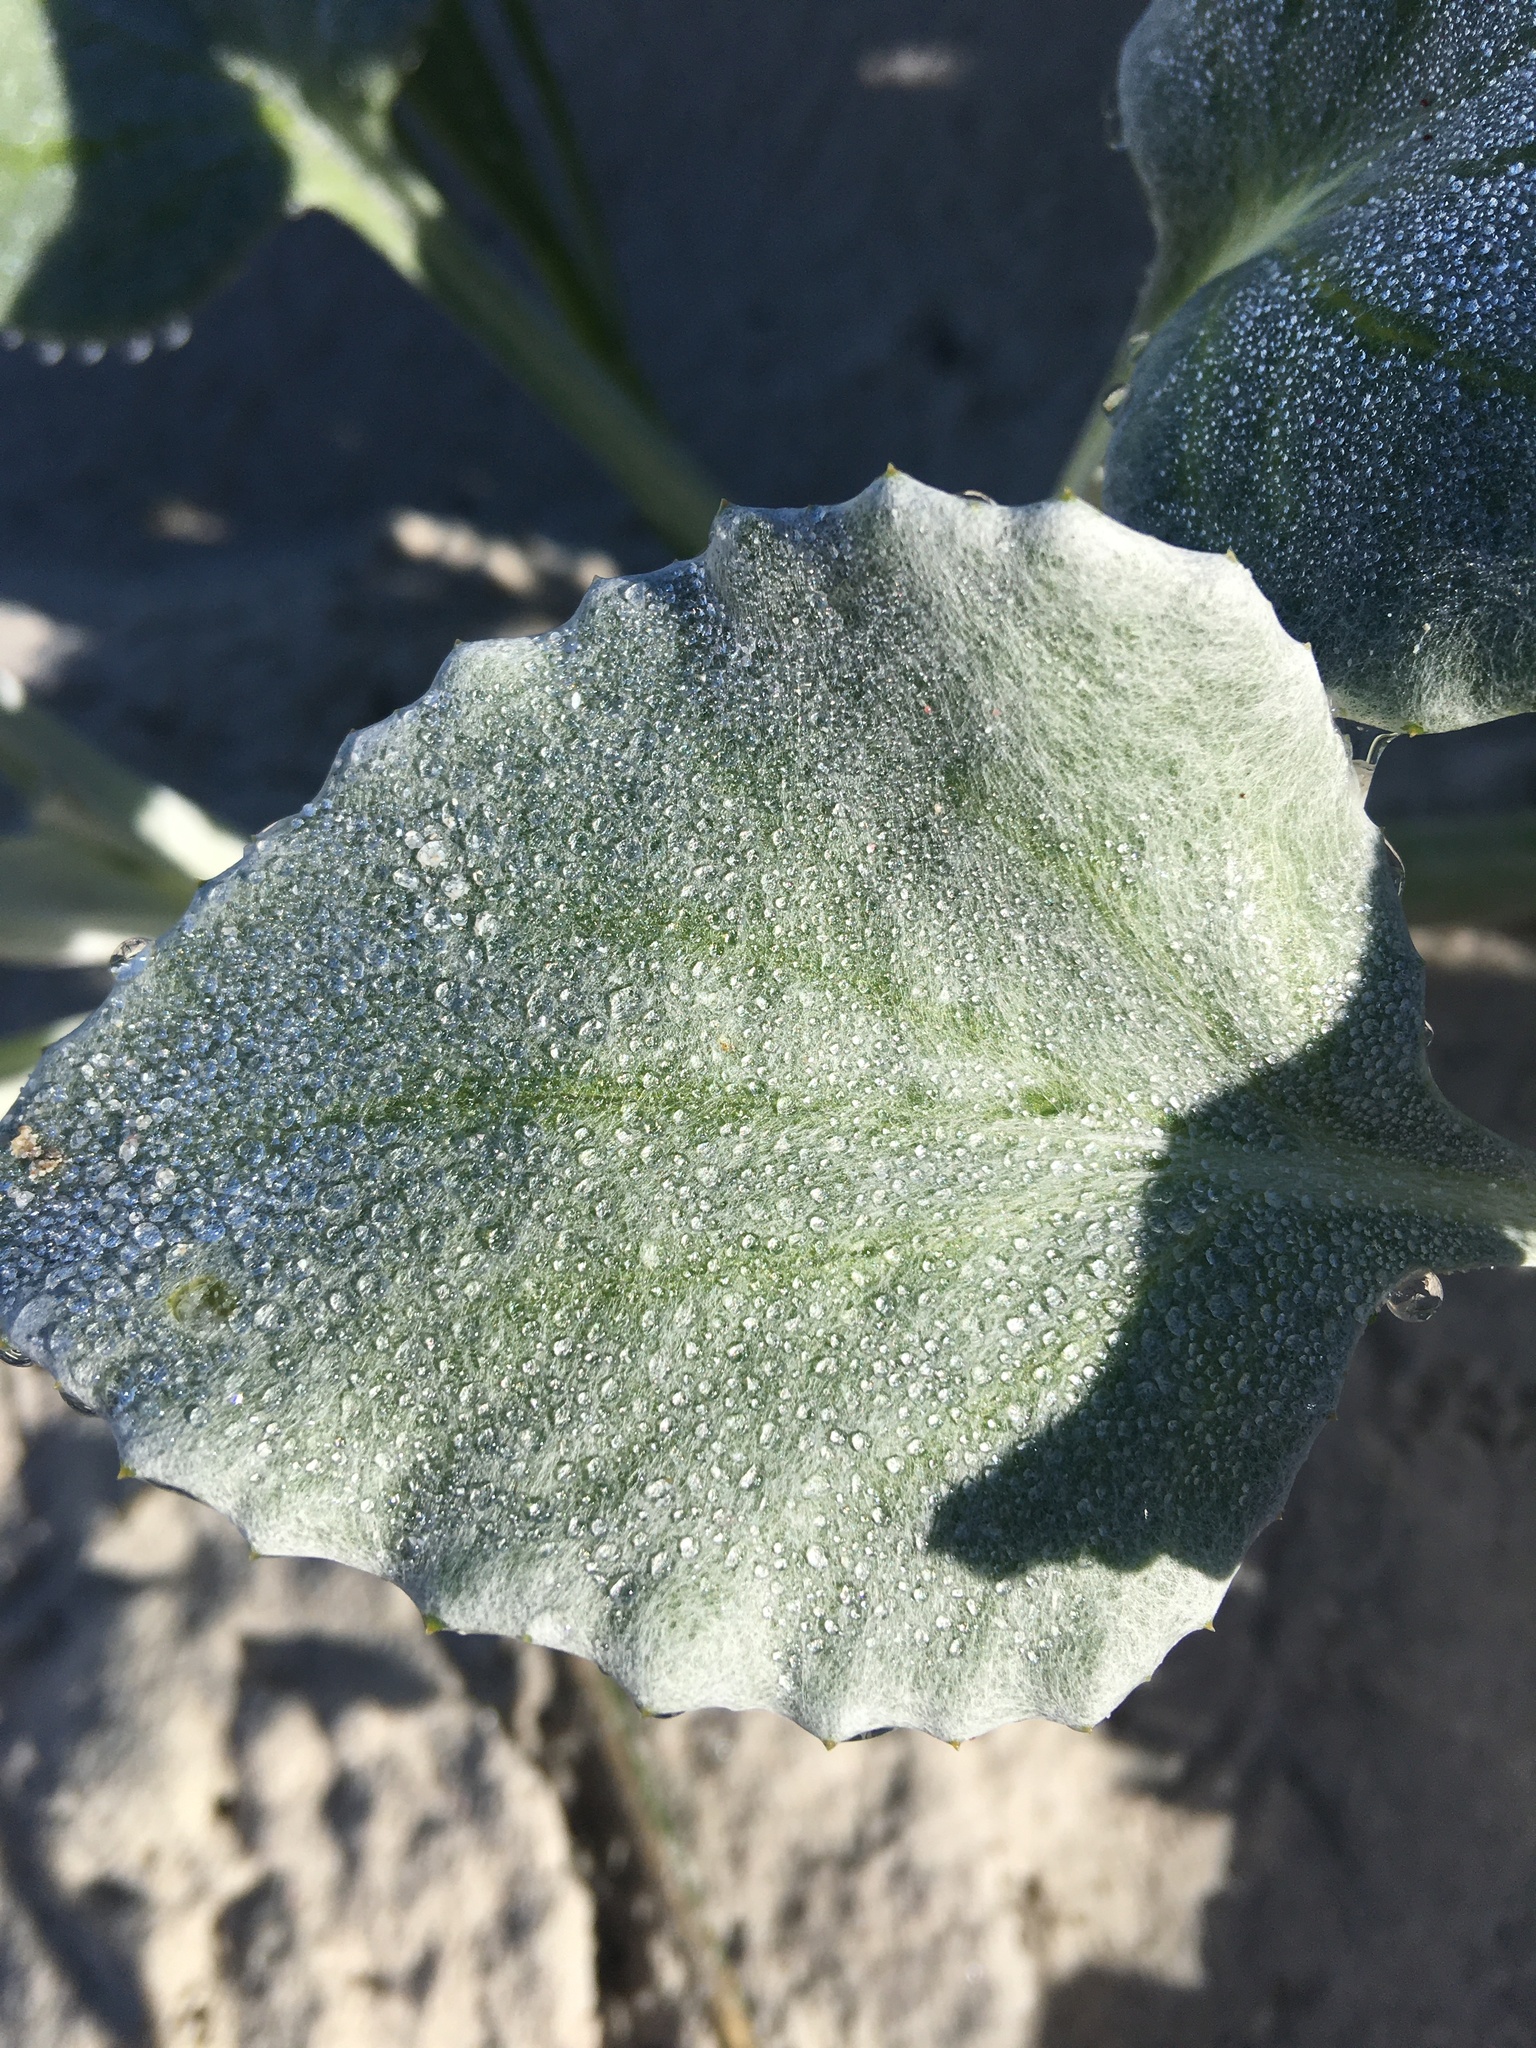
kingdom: Plantae
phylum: Tracheophyta
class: Magnoliopsida
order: Asterales
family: Asteraceae
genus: Arctotheca
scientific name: Arctotheca populifolia
